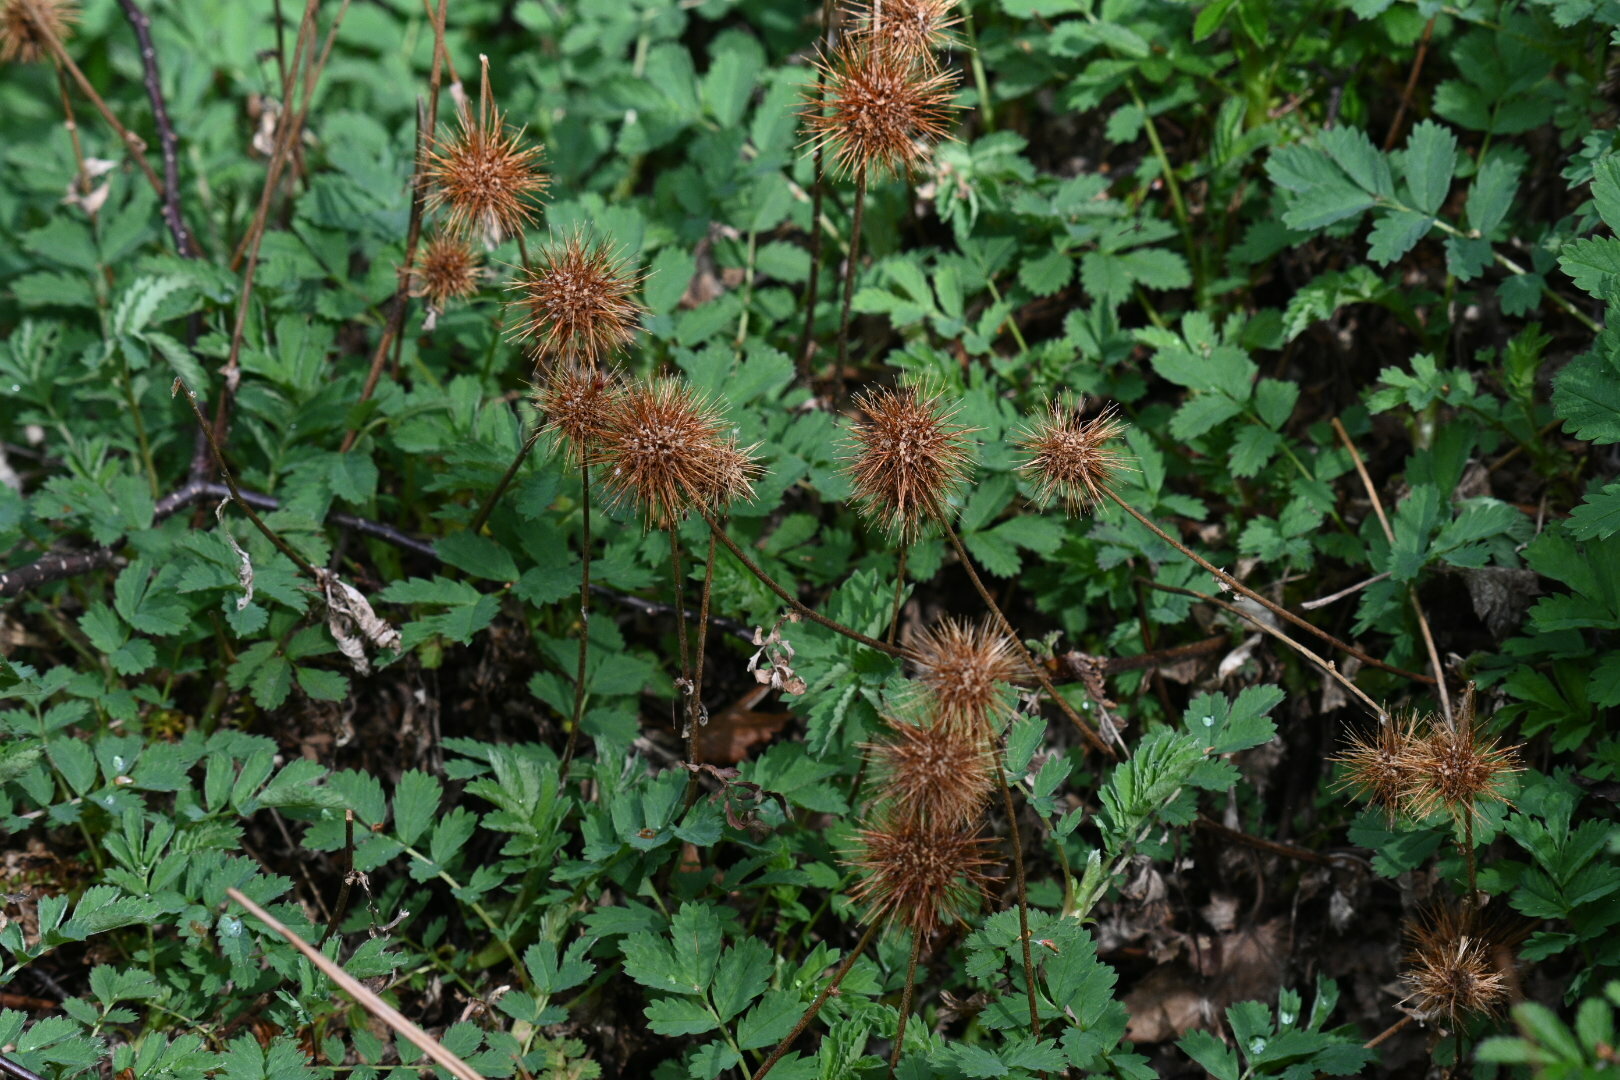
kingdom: Plantae
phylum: Tracheophyta
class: Magnoliopsida
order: Rosales
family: Rosaceae
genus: Acaena
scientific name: Acaena magellanica
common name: New zealand burr
